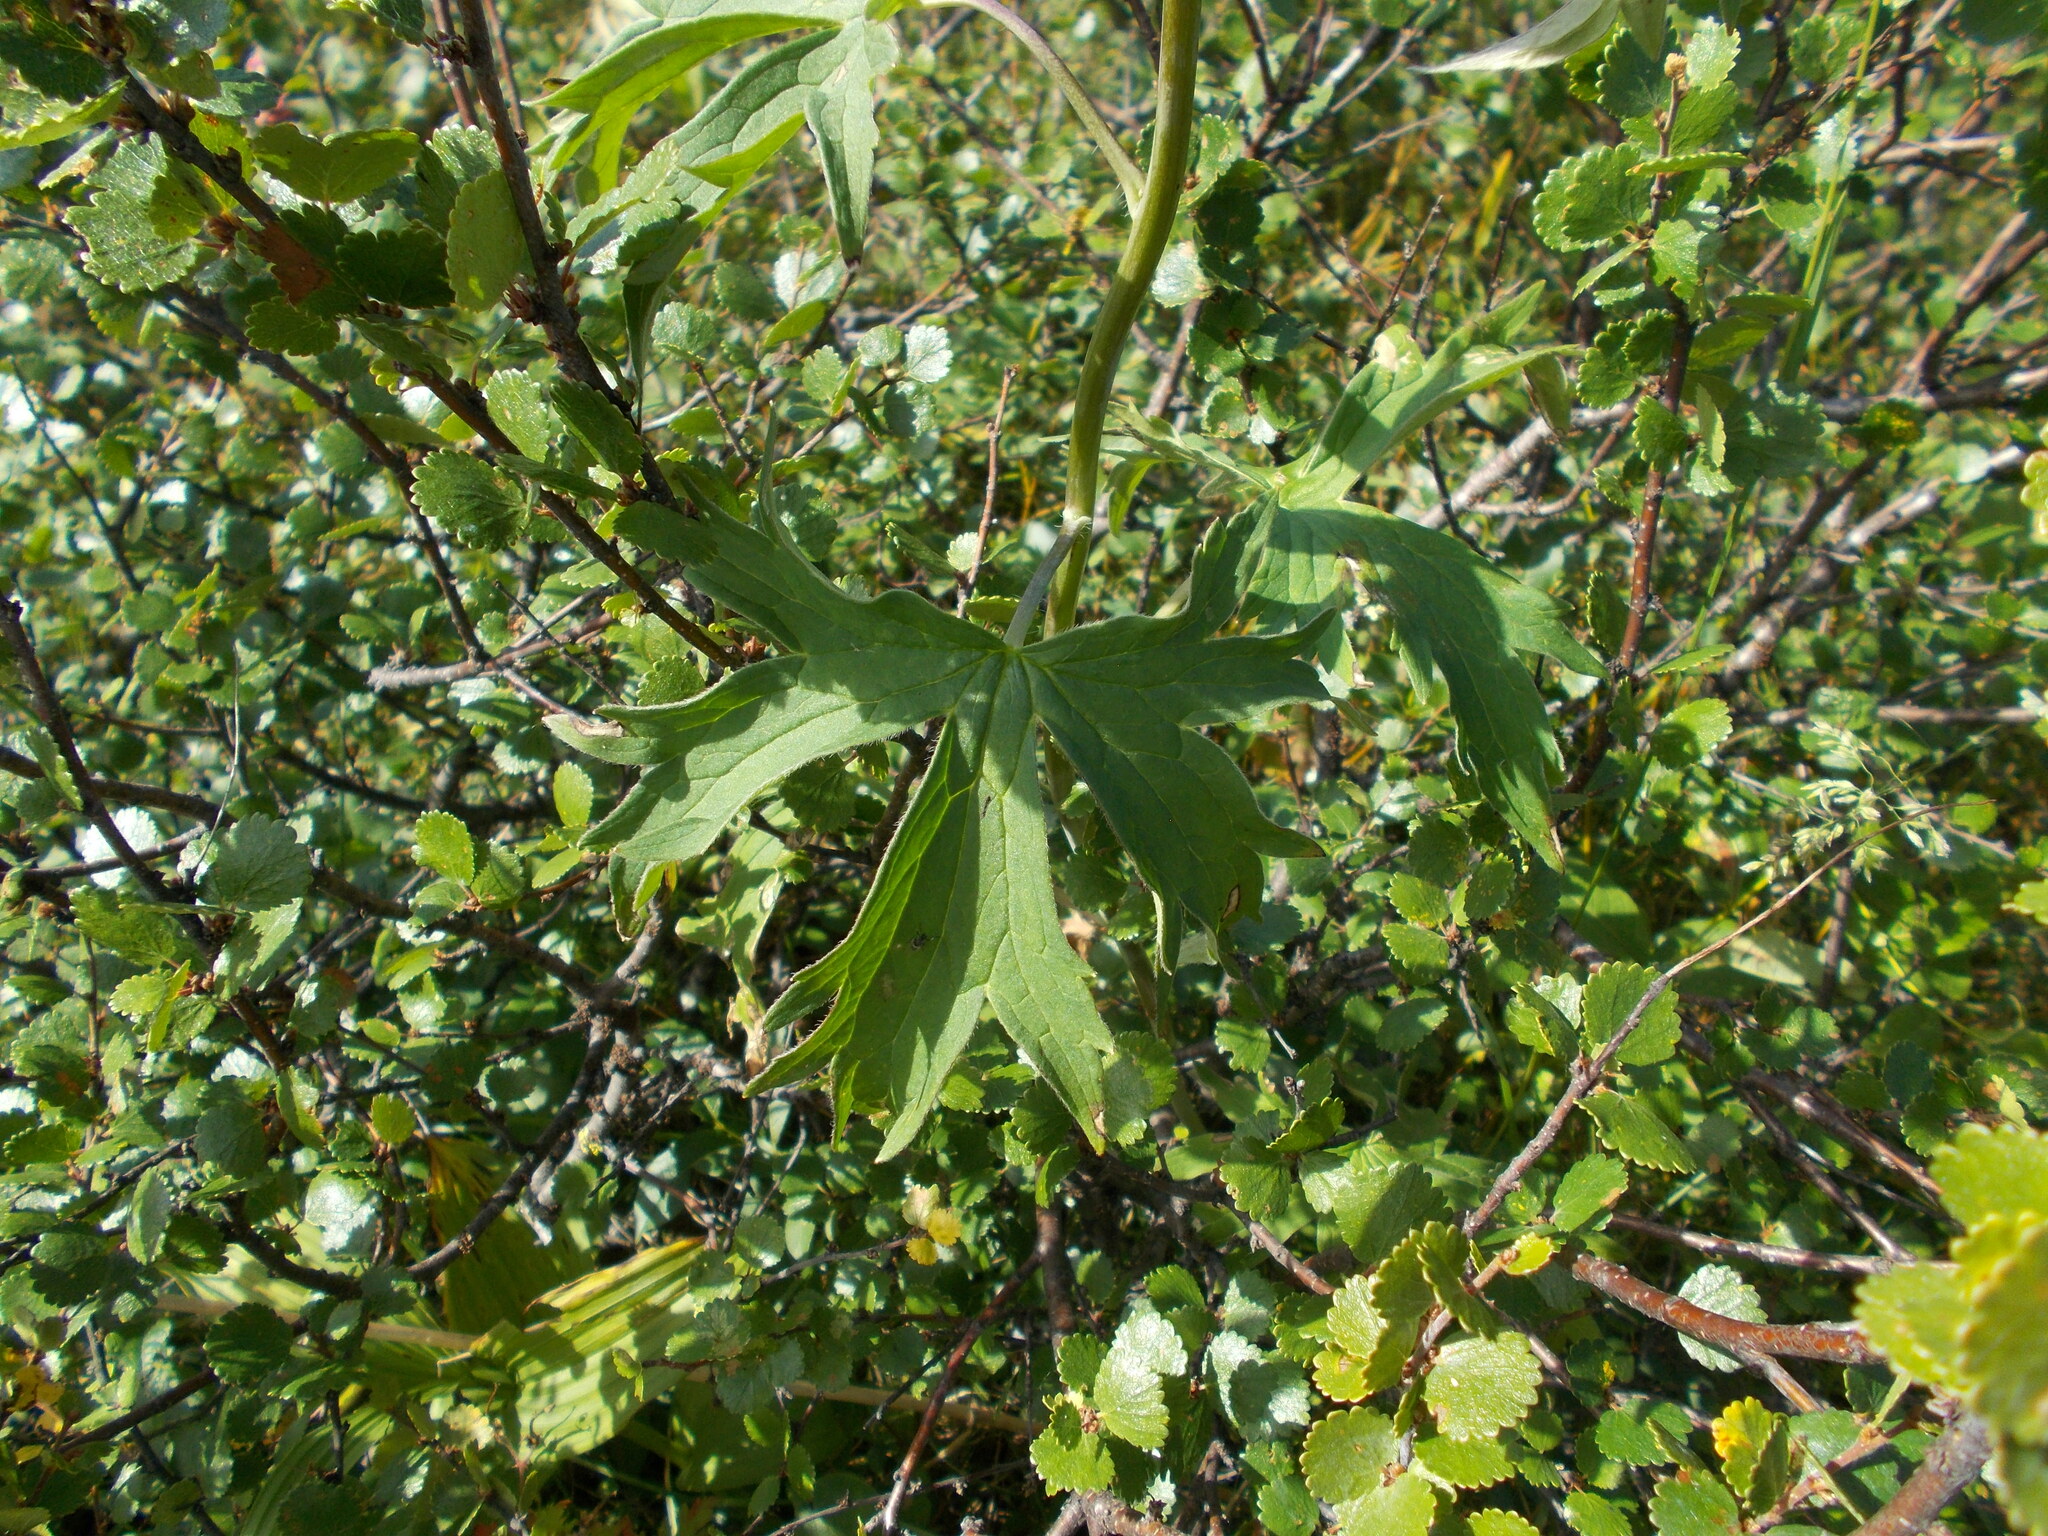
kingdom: Plantae
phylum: Tracheophyta
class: Magnoliopsida
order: Ranunculales
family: Ranunculaceae
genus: Delphinium
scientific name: Delphinium elatum
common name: Candle larkspur
